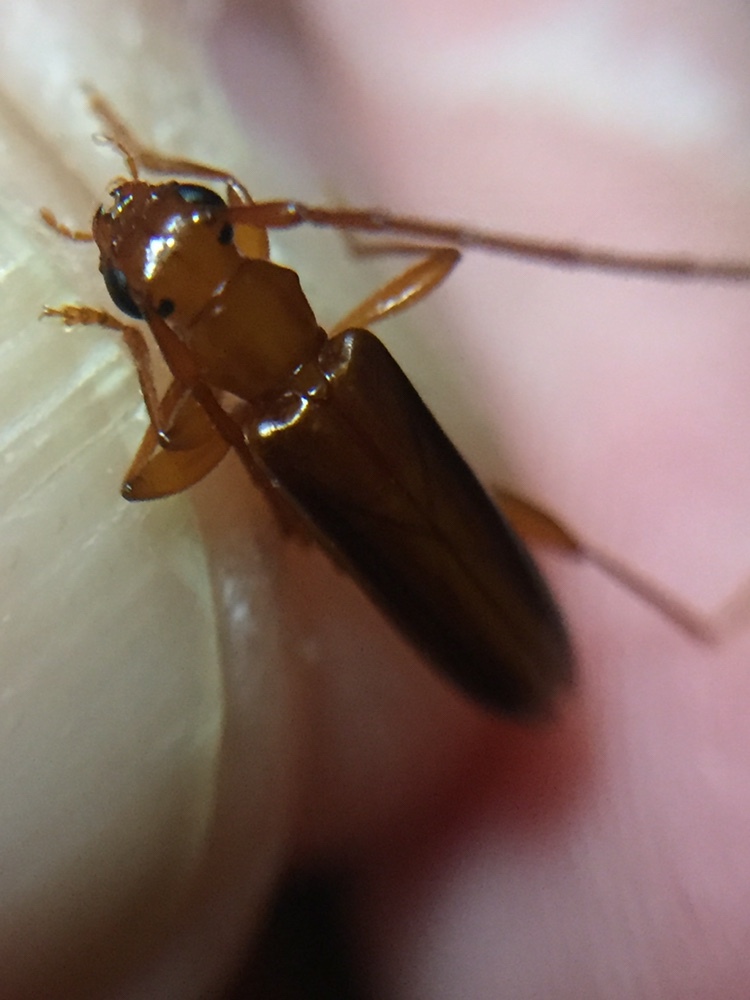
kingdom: Animalia
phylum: Arthropoda
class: Insecta
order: Coleoptera
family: Cerambycidae
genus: Astetholea
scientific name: Astetholea pauper
